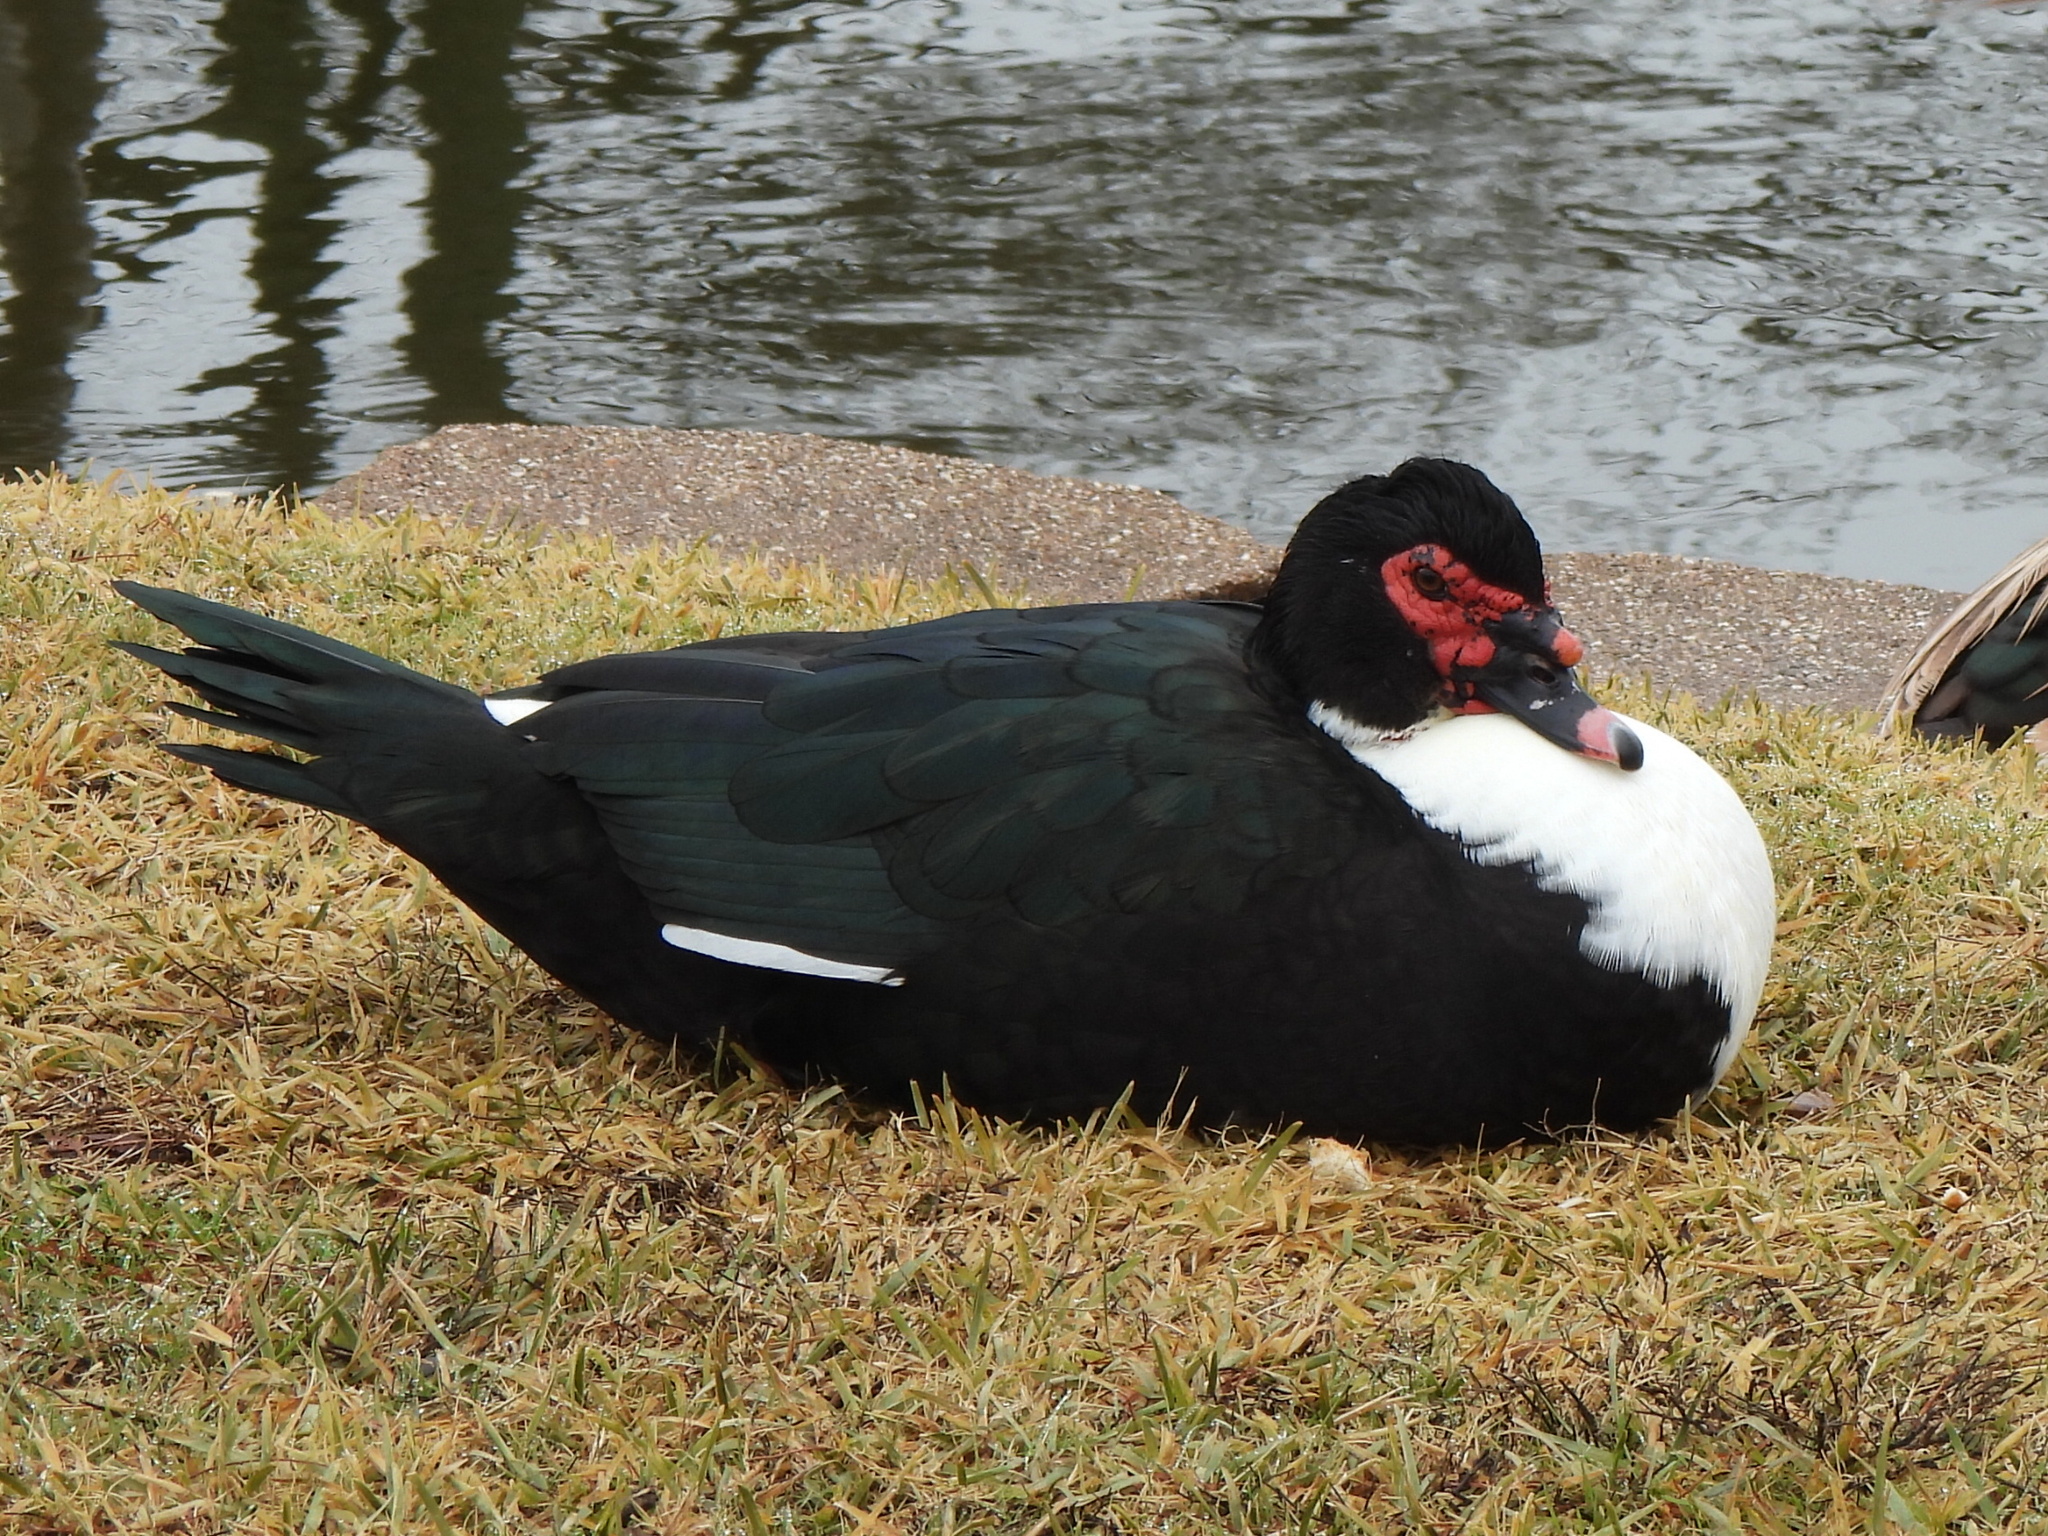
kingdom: Animalia
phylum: Chordata
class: Aves
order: Anseriformes
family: Anatidae
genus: Cairina
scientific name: Cairina moschata
